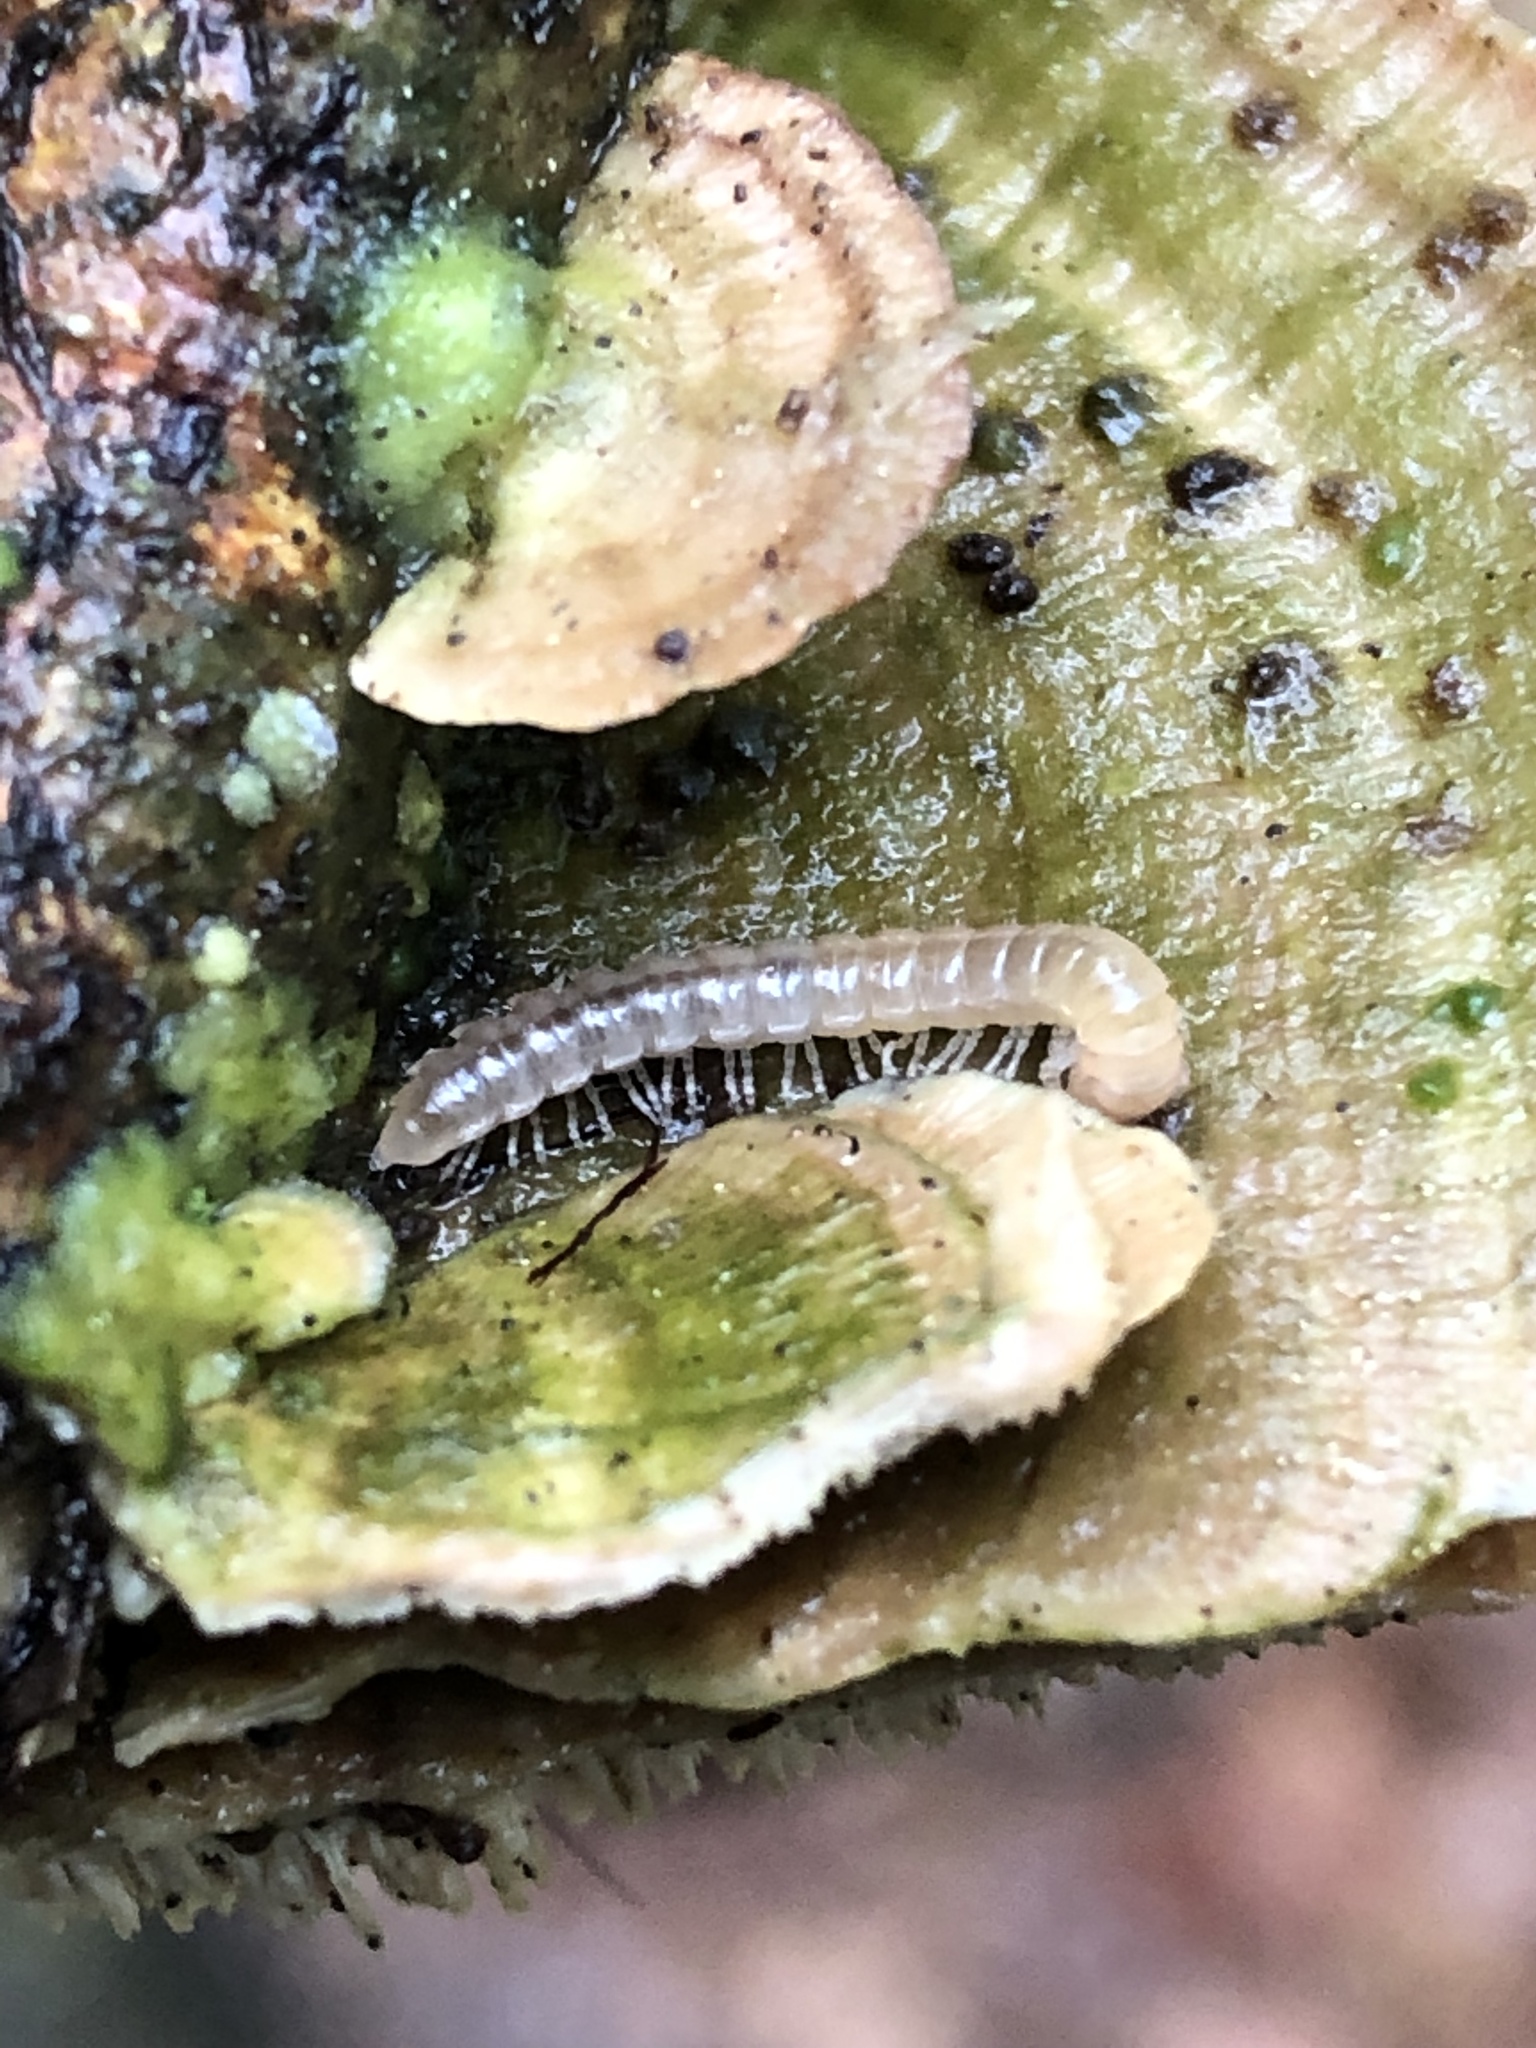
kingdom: Animalia
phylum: Arthropoda
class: Diplopoda
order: Polydesmida
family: Paradoxosomatidae
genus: Oxidus
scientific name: Oxidus gracilis
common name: Greenhouse millipede
